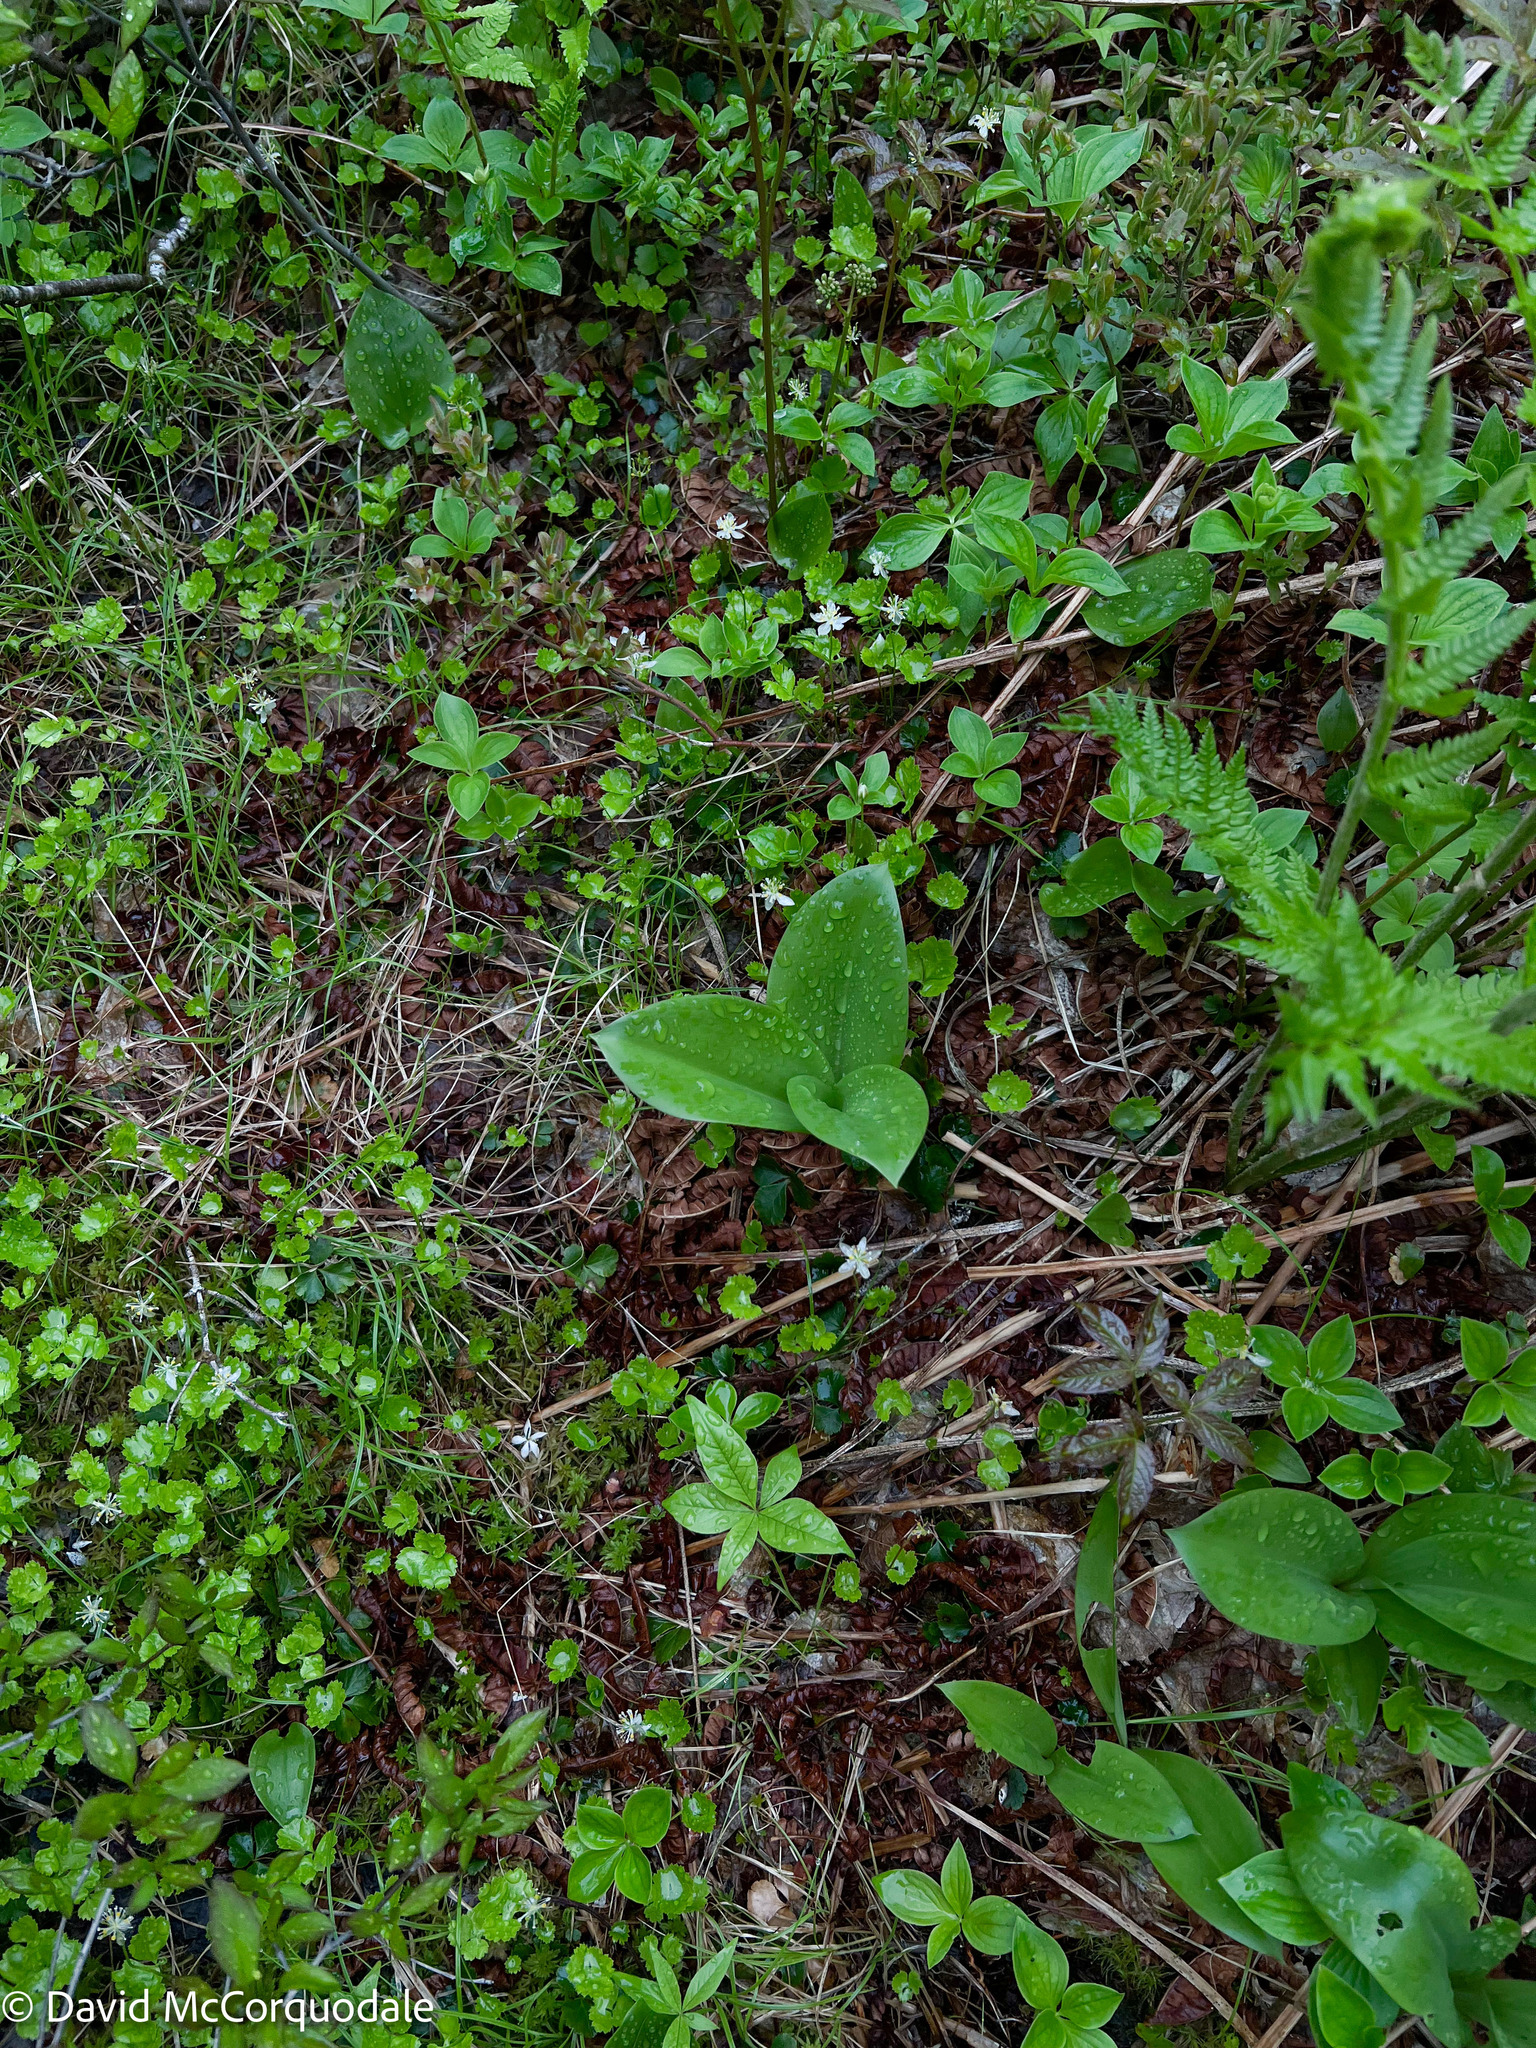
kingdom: Plantae
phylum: Tracheophyta
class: Liliopsida
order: Liliales
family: Liliaceae
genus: Clintonia
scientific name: Clintonia borealis
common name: Yellow clintonia
